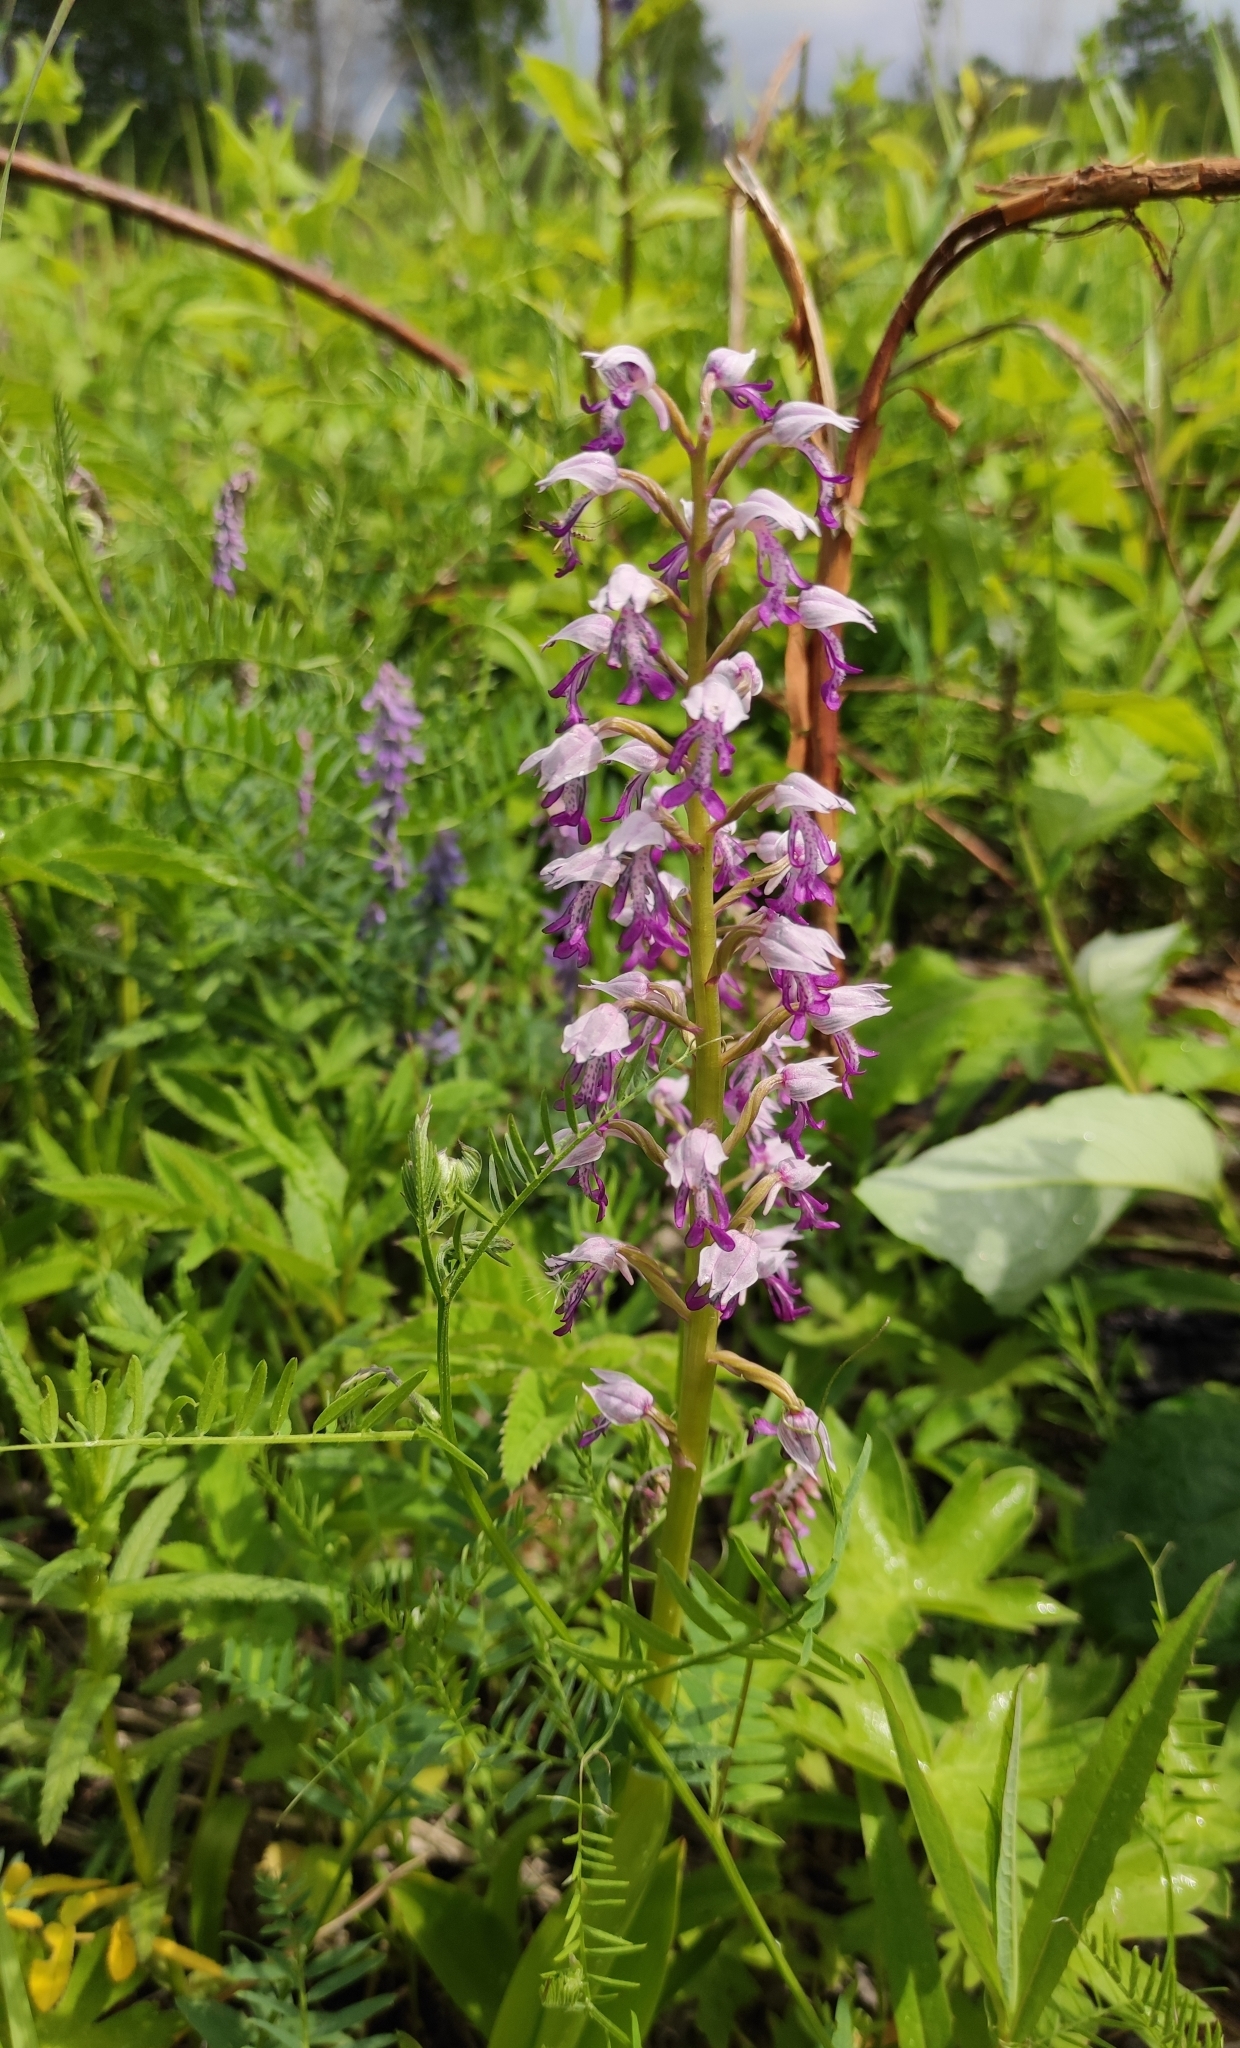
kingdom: Plantae
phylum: Tracheophyta
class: Liliopsida
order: Asparagales
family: Orchidaceae
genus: Orchis
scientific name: Orchis militaris
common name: Military orchid
